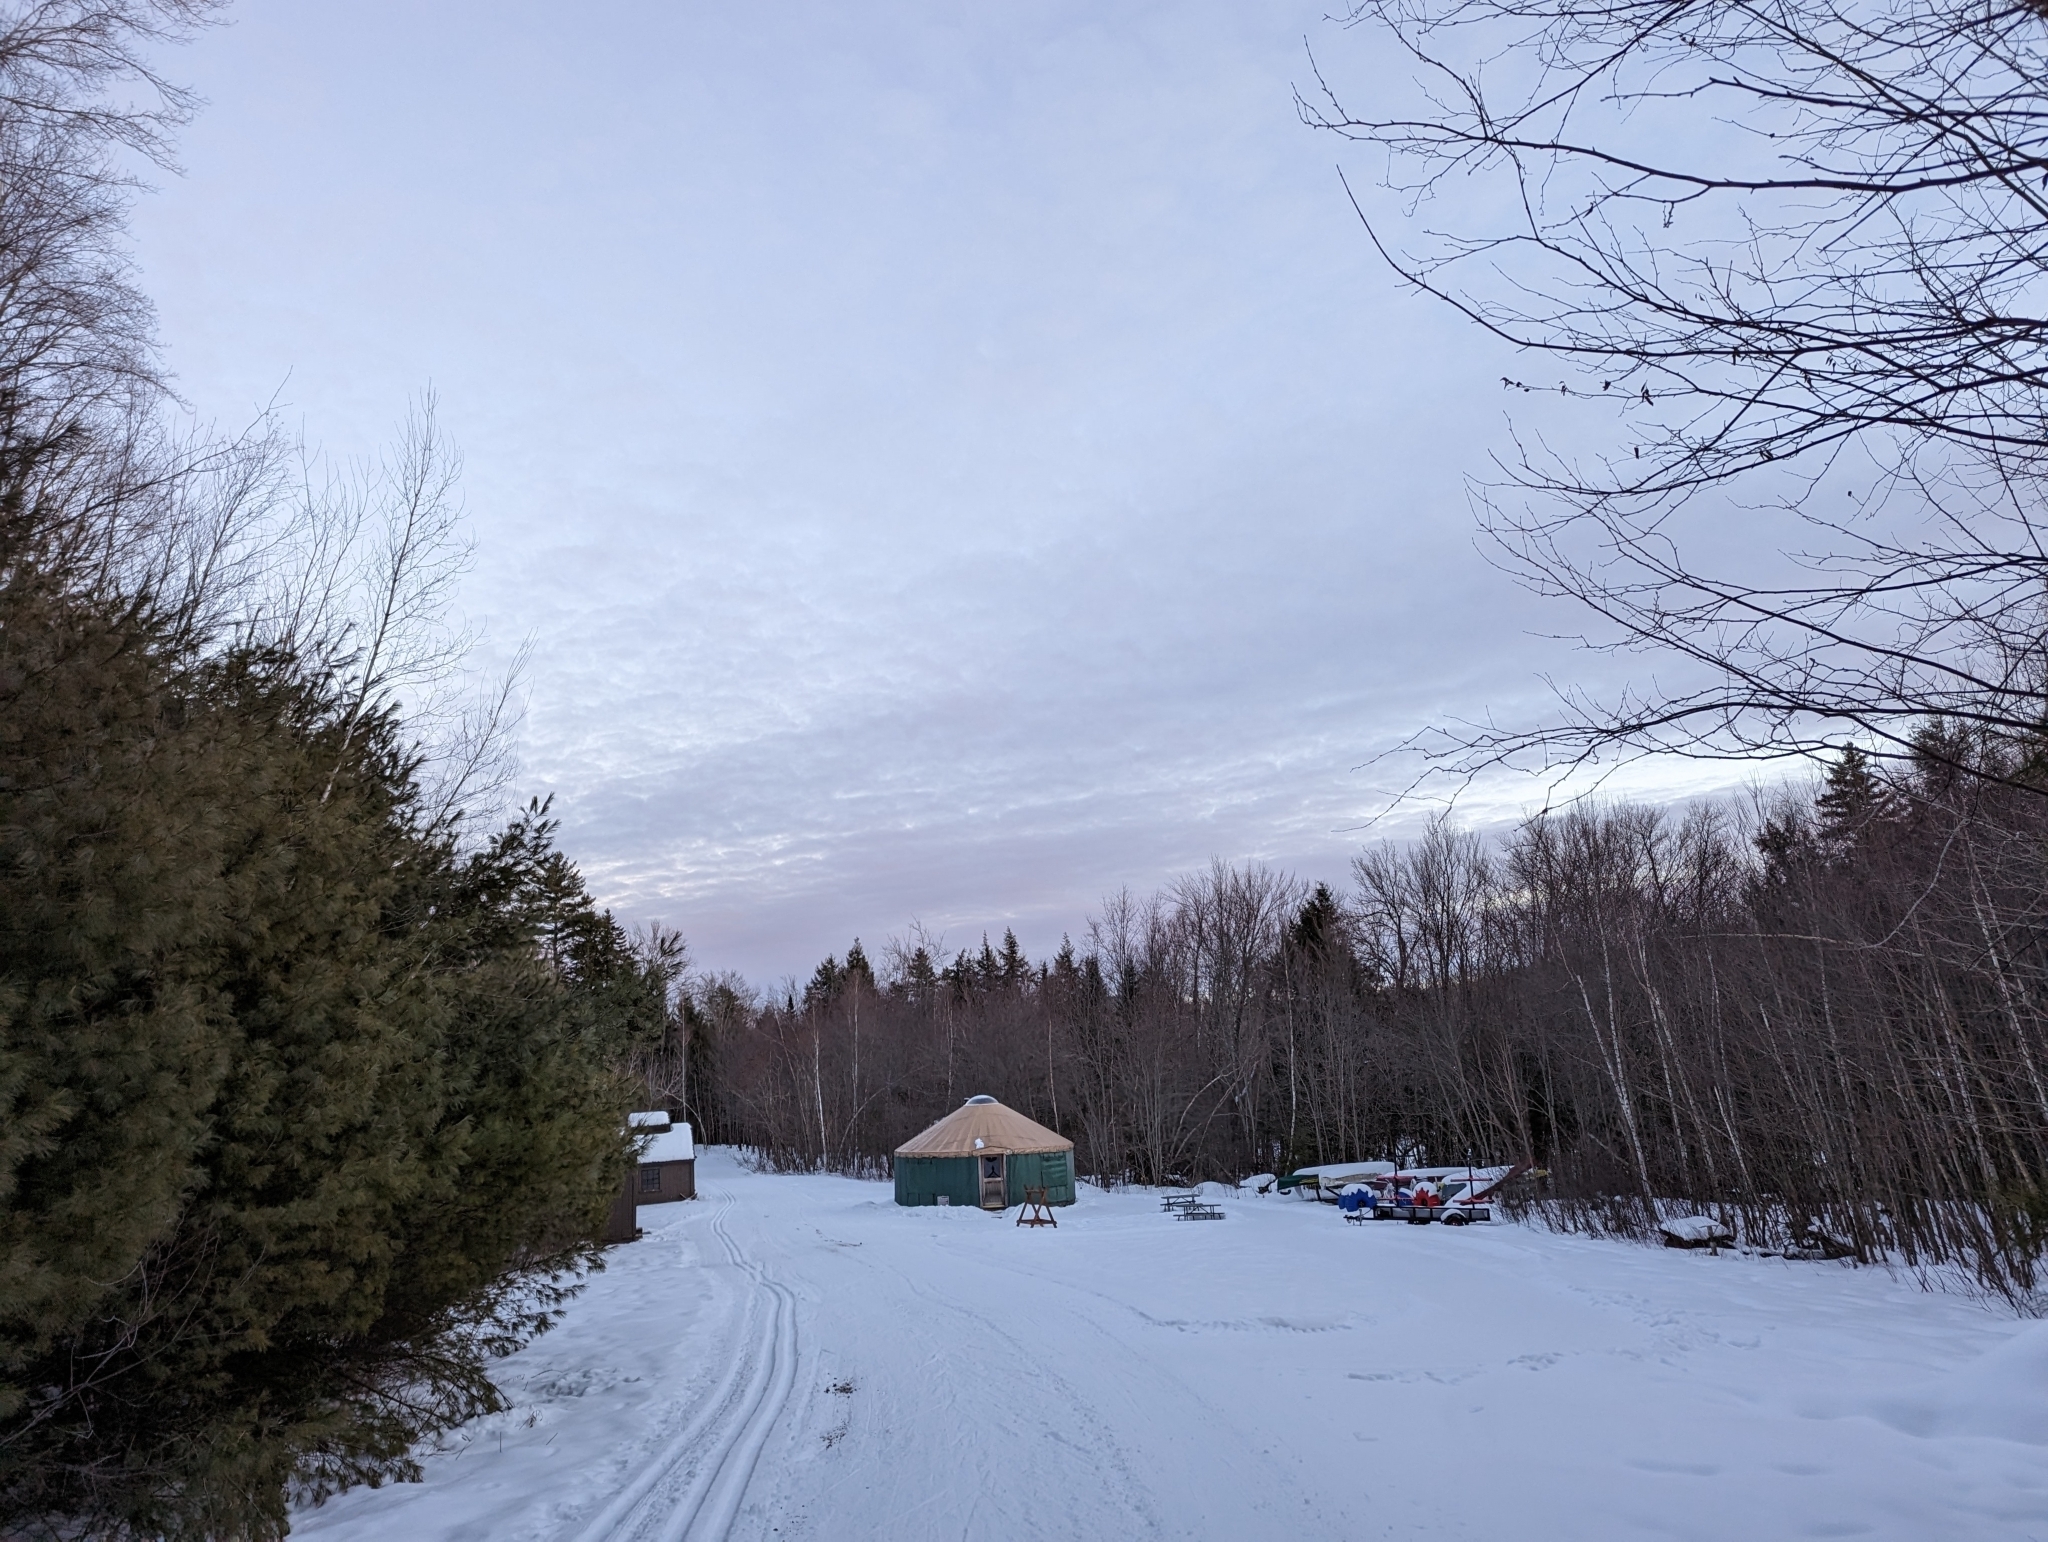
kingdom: Plantae
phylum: Tracheophyta
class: Pinopsida
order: Pinales
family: Pinaceae
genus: Pinus
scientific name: Pinus strobus
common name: Weymouth pine
